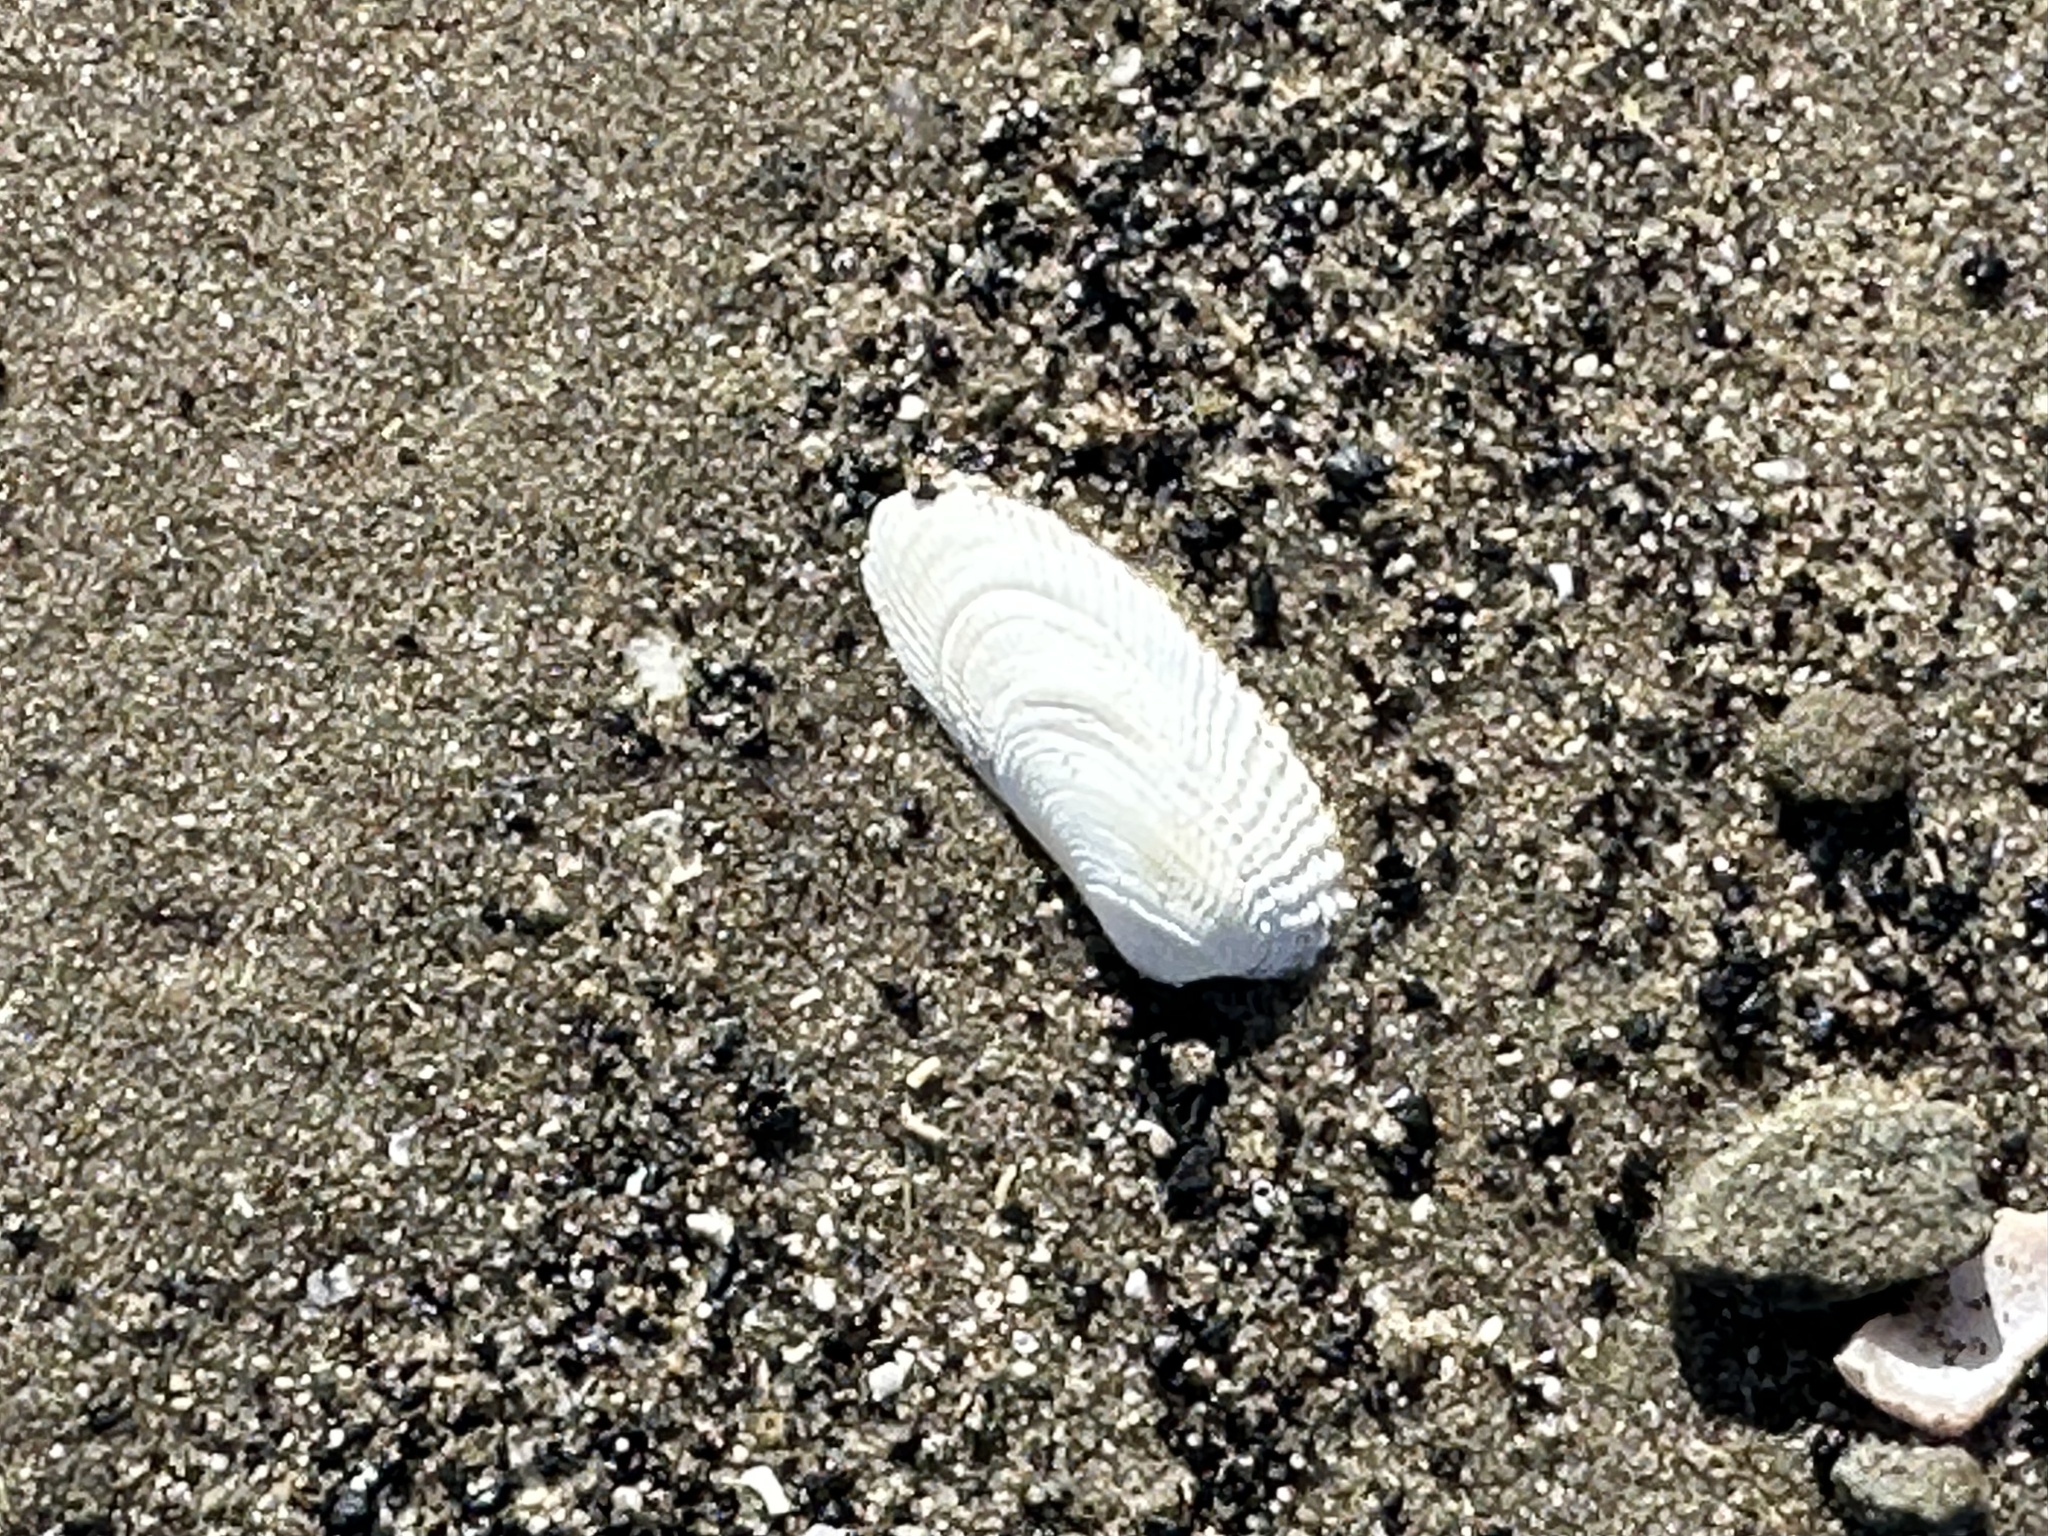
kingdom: Animalia
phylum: Mollusca
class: Bivalvia
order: Venerida
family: Veneridae
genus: Petricolaria
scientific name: Petricolaria pholadiformis
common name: American piddock
